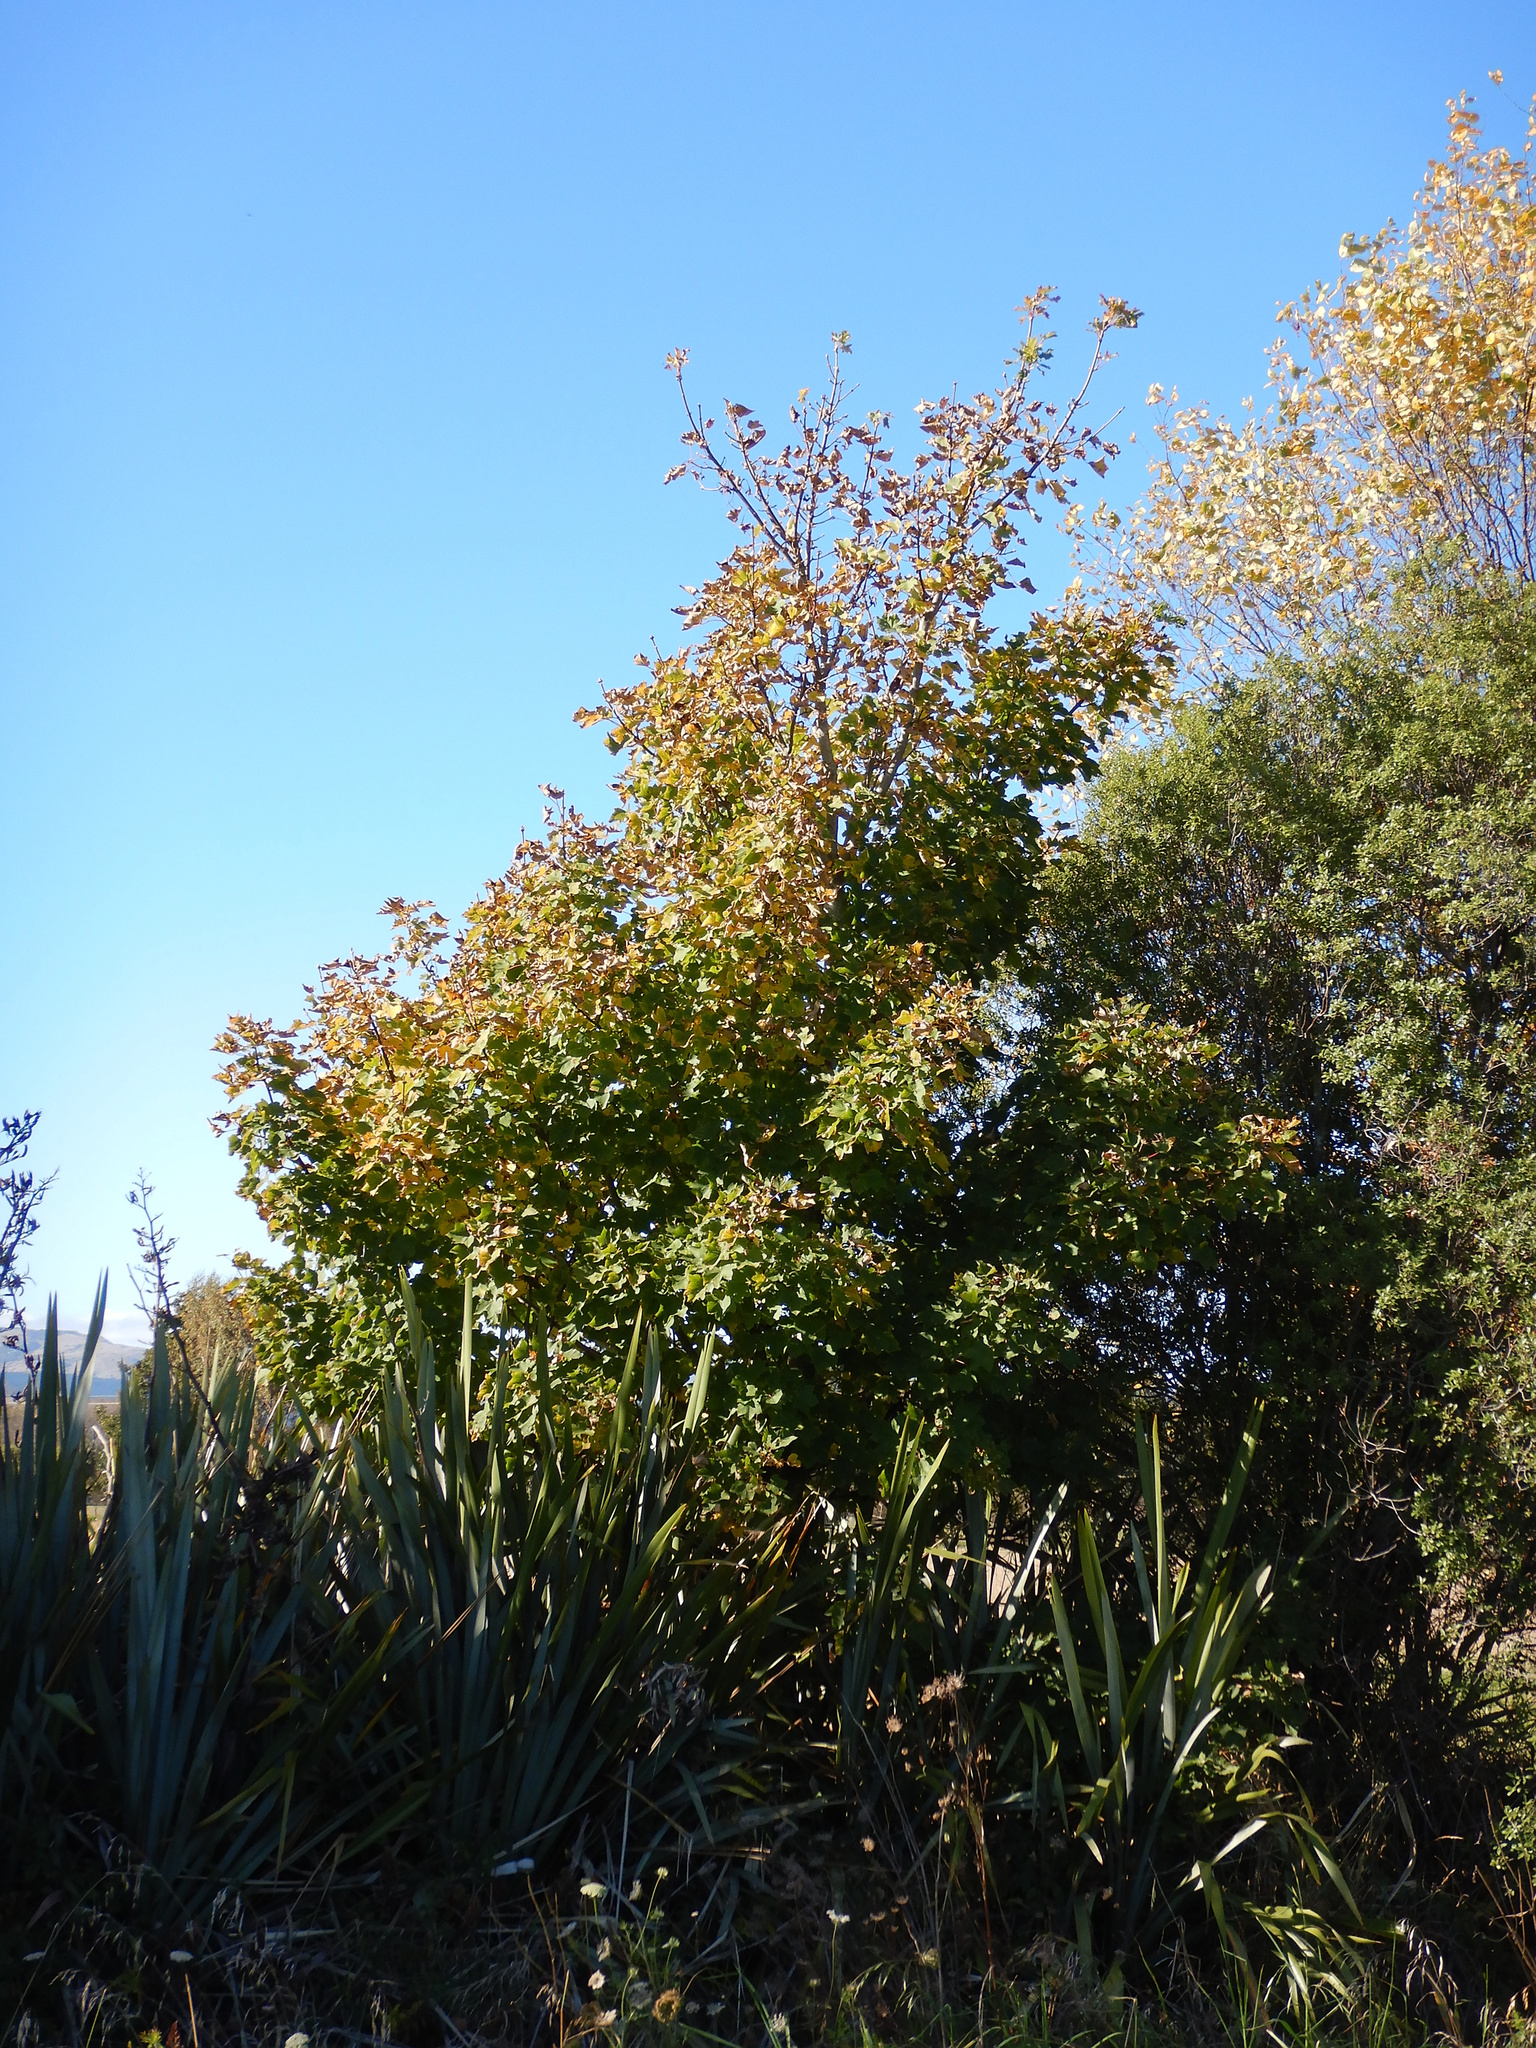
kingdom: Plantae
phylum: Tracheophyta
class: Magnoliopsida
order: Sapindales
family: Sapindaceae
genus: Acer
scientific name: Acer pseudoplatanus
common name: Sycamore
